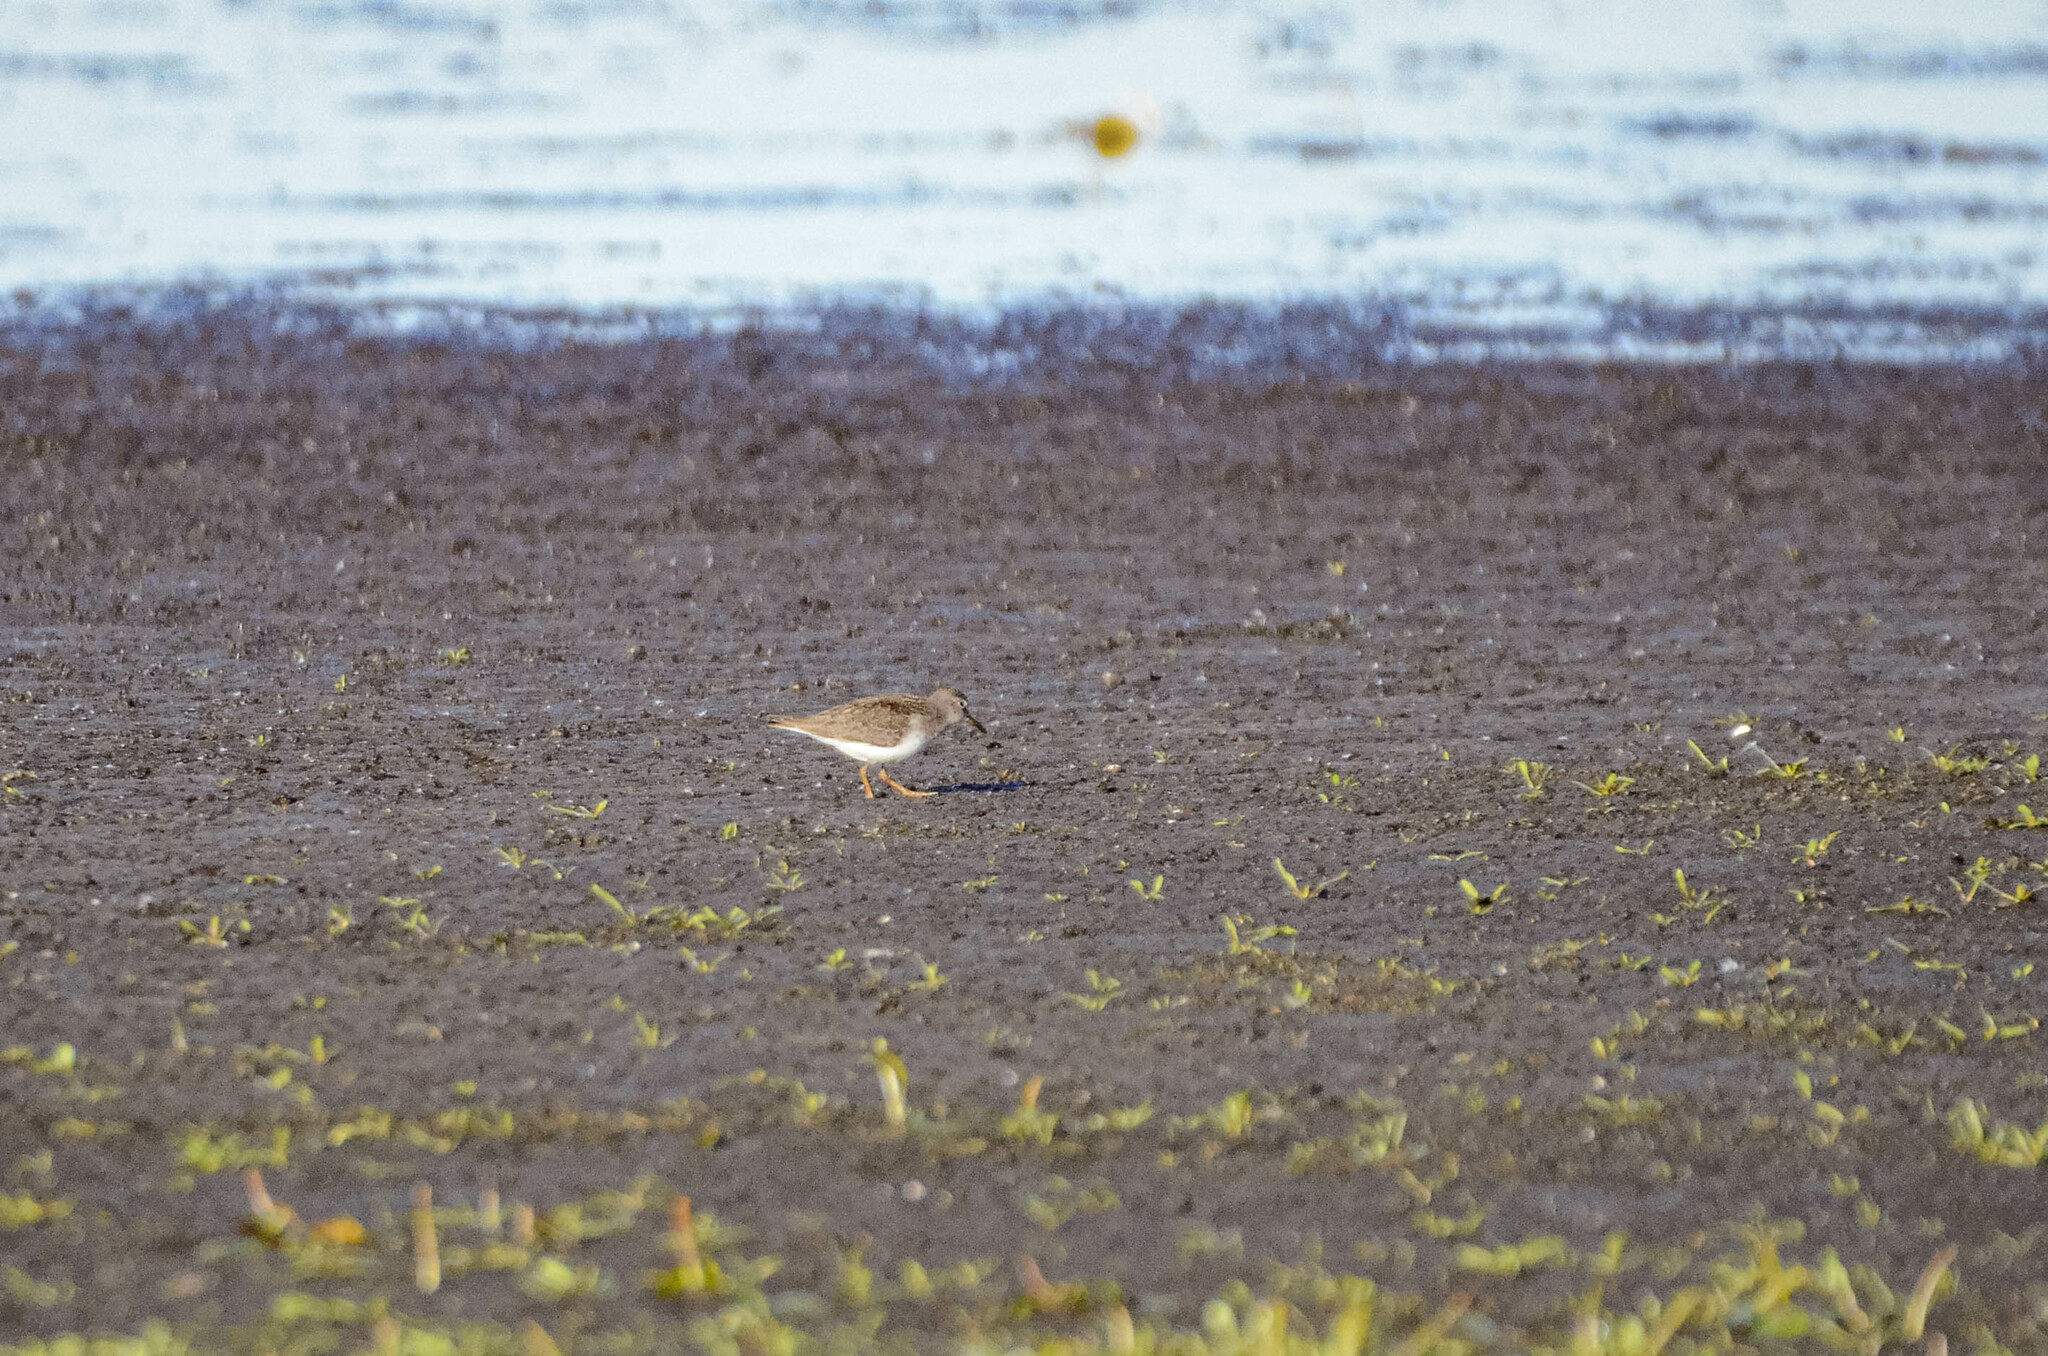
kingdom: Animalia
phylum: Chordata
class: Aves
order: Charadriiformes
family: Scolopacidae
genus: Calidris
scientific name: Calidris temminckii
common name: Temminck's stint
